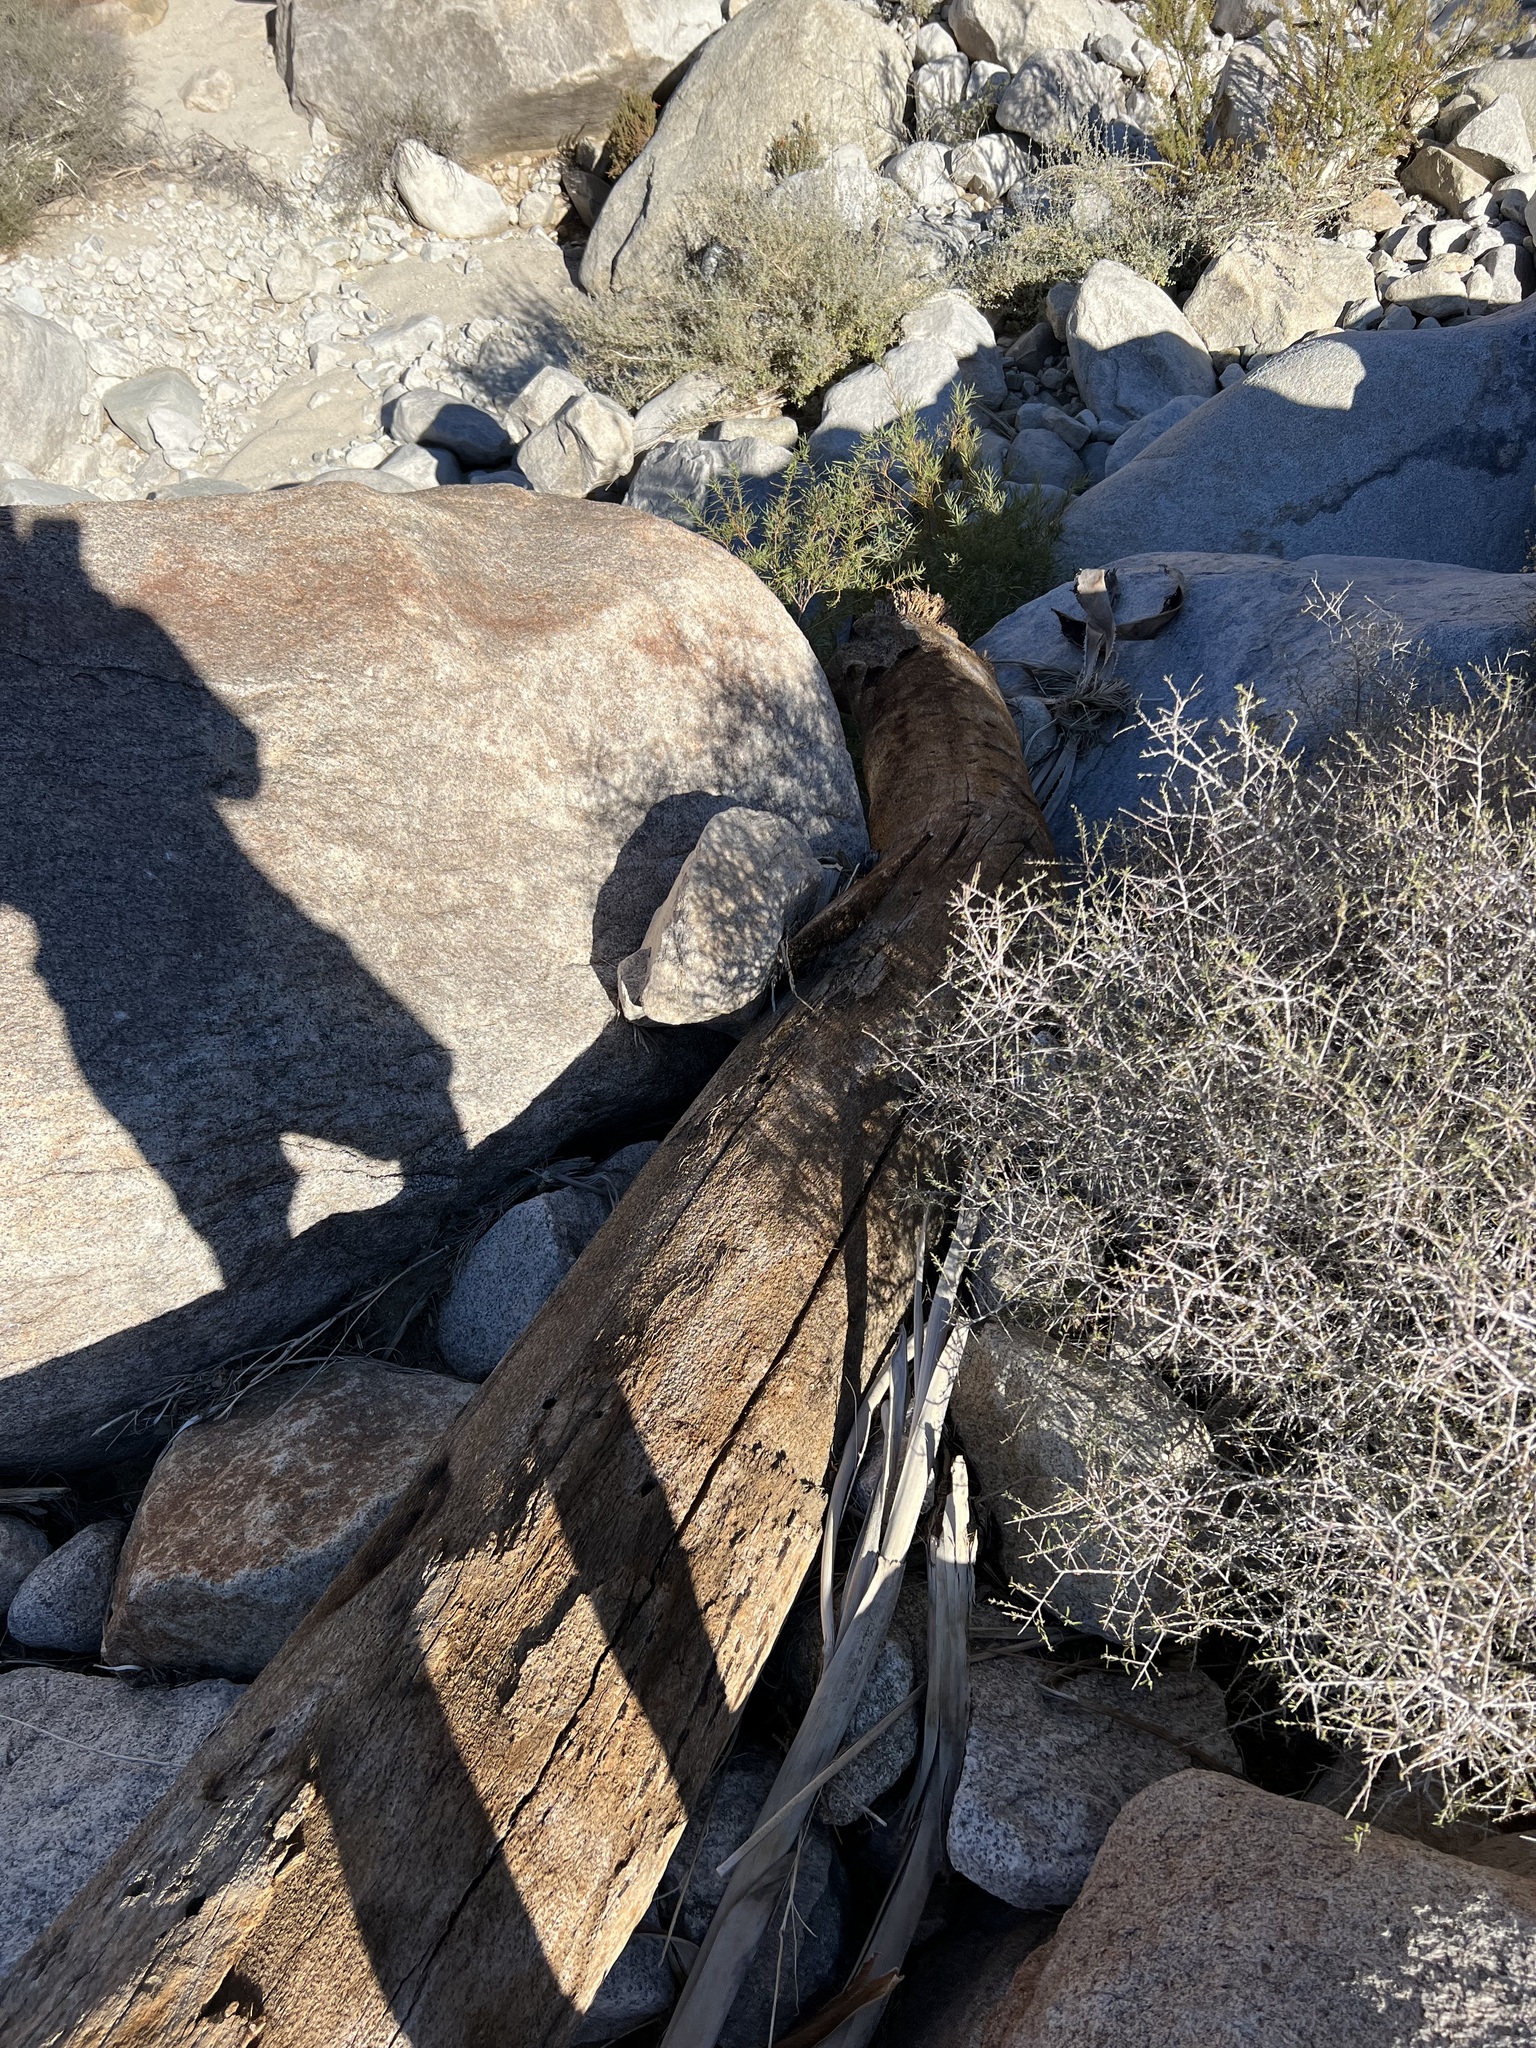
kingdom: Plantae
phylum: Tracheophyta
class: Liliopsida
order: Arecales
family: Arecaceae
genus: Washingtonia
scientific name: Washingtonia filifera
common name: California fan palm
